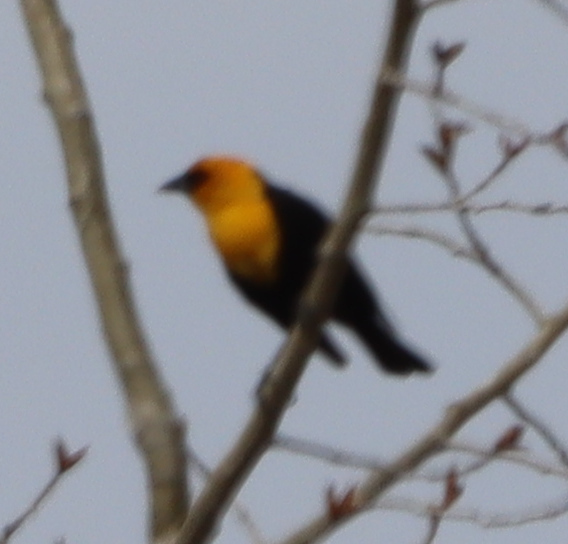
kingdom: Animalia
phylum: Chordata
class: Aves
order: Passeriformes
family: Icteridae
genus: Xanthocephalus
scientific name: Xanthocephalus xanthocephalus
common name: Yellow-headed blackbird
